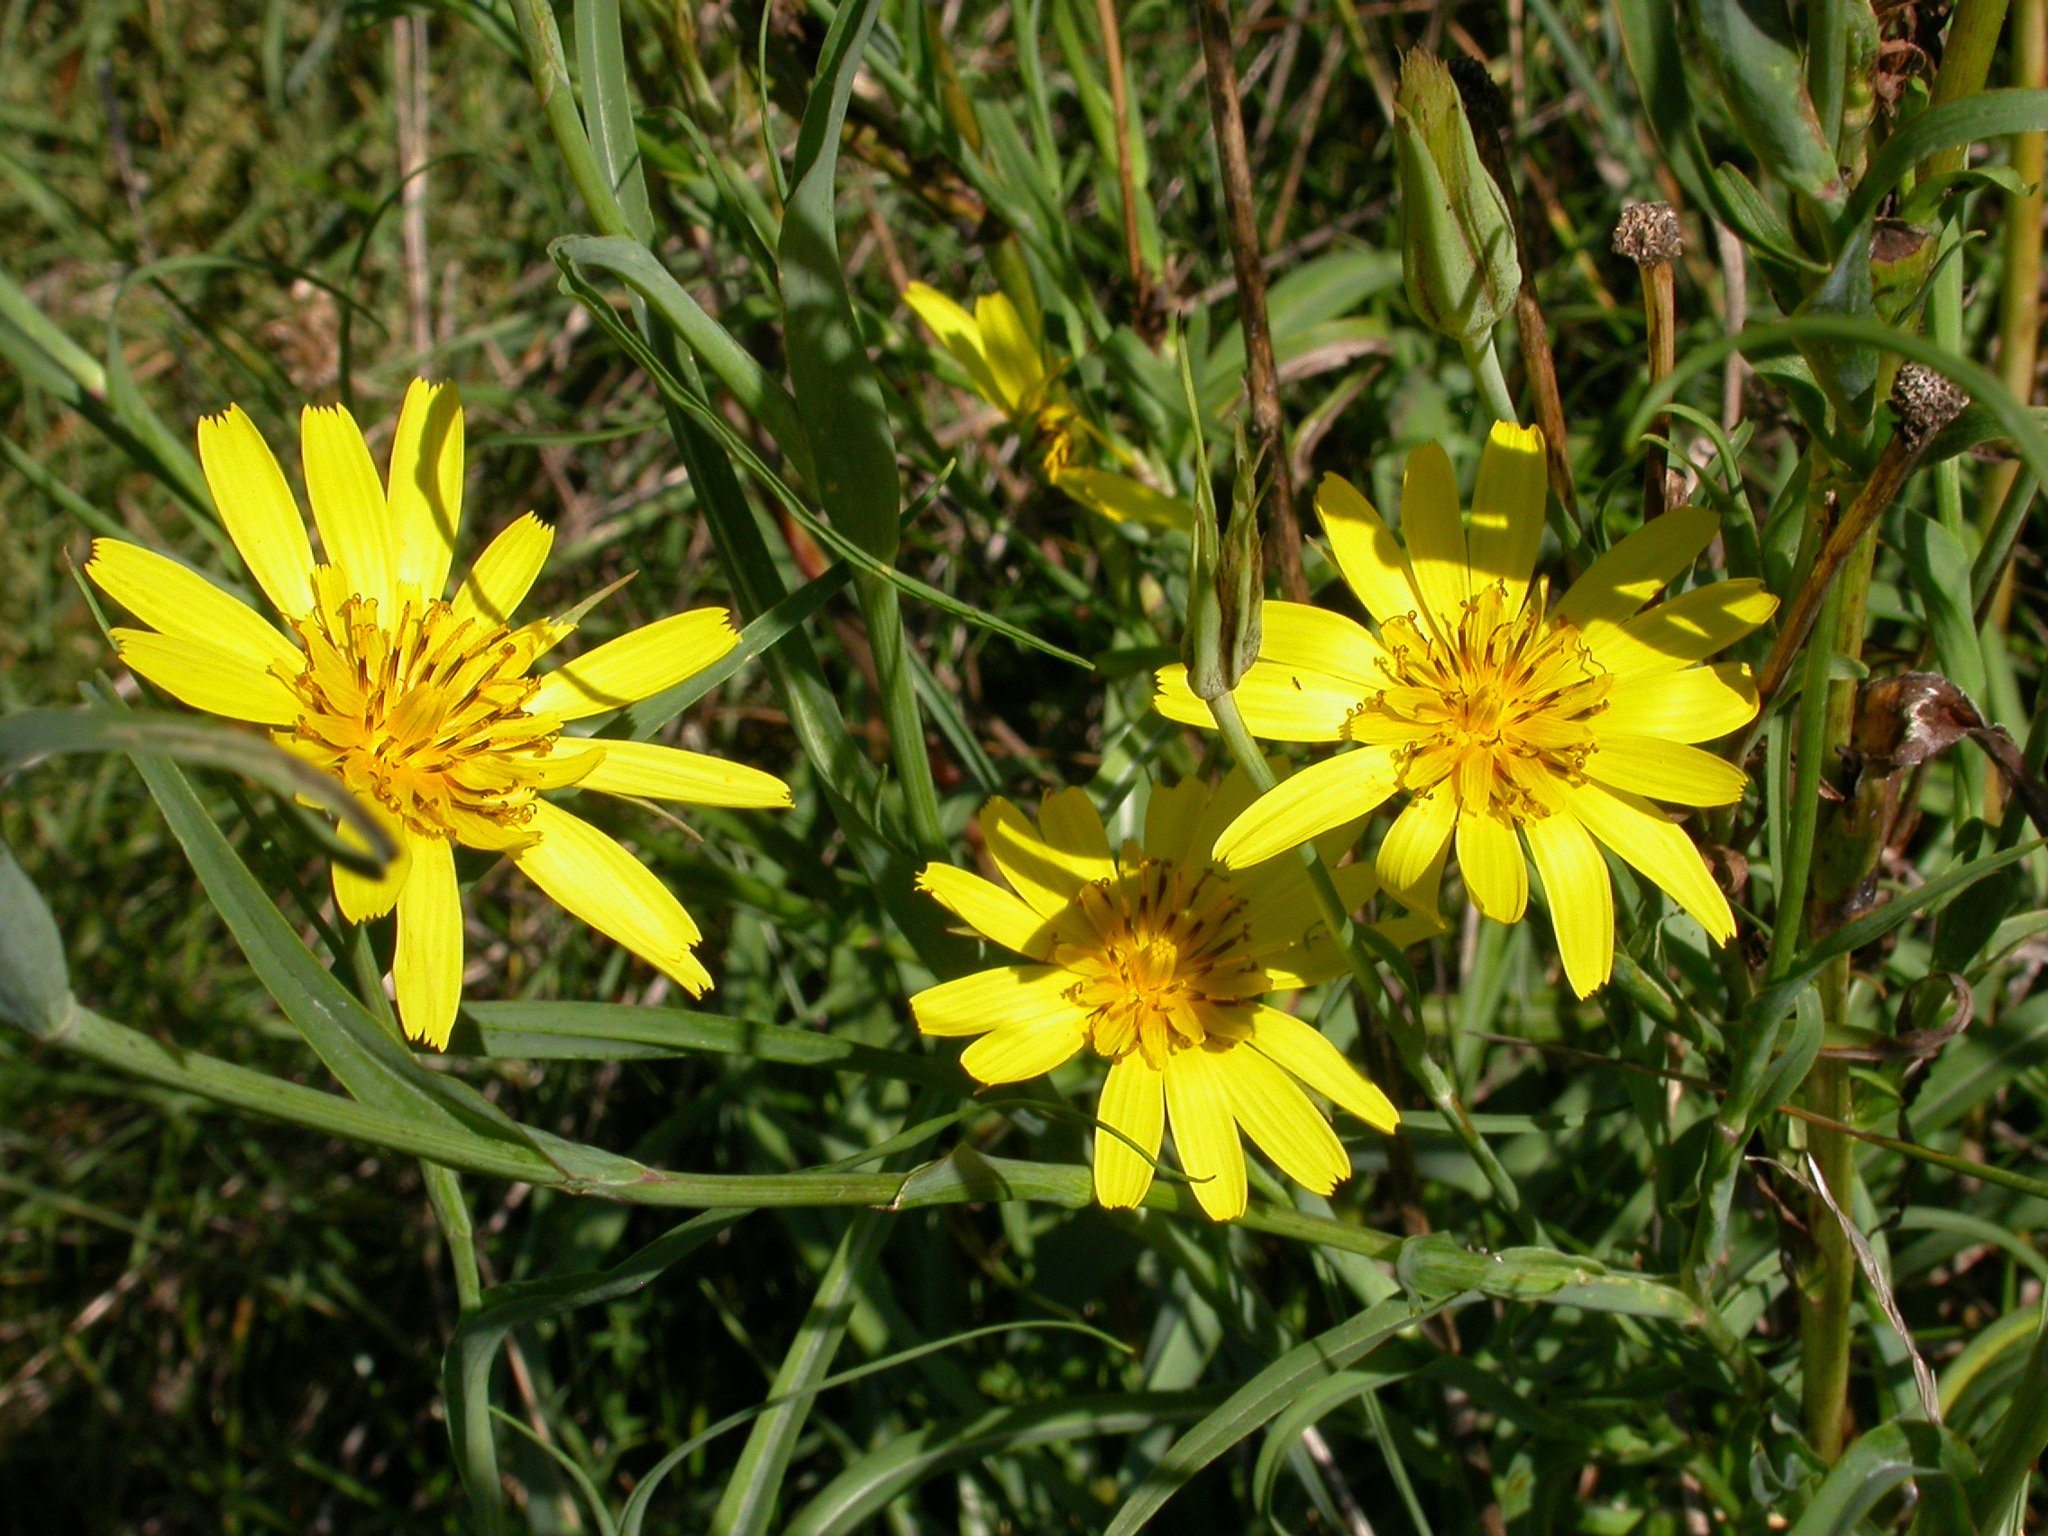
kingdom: Plantae
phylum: Tracheophyta
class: Magnoliopsida
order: Asterales
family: Asteraceae
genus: Tragopogon
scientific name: Tragopogon pratensis
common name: Goat's-beard
